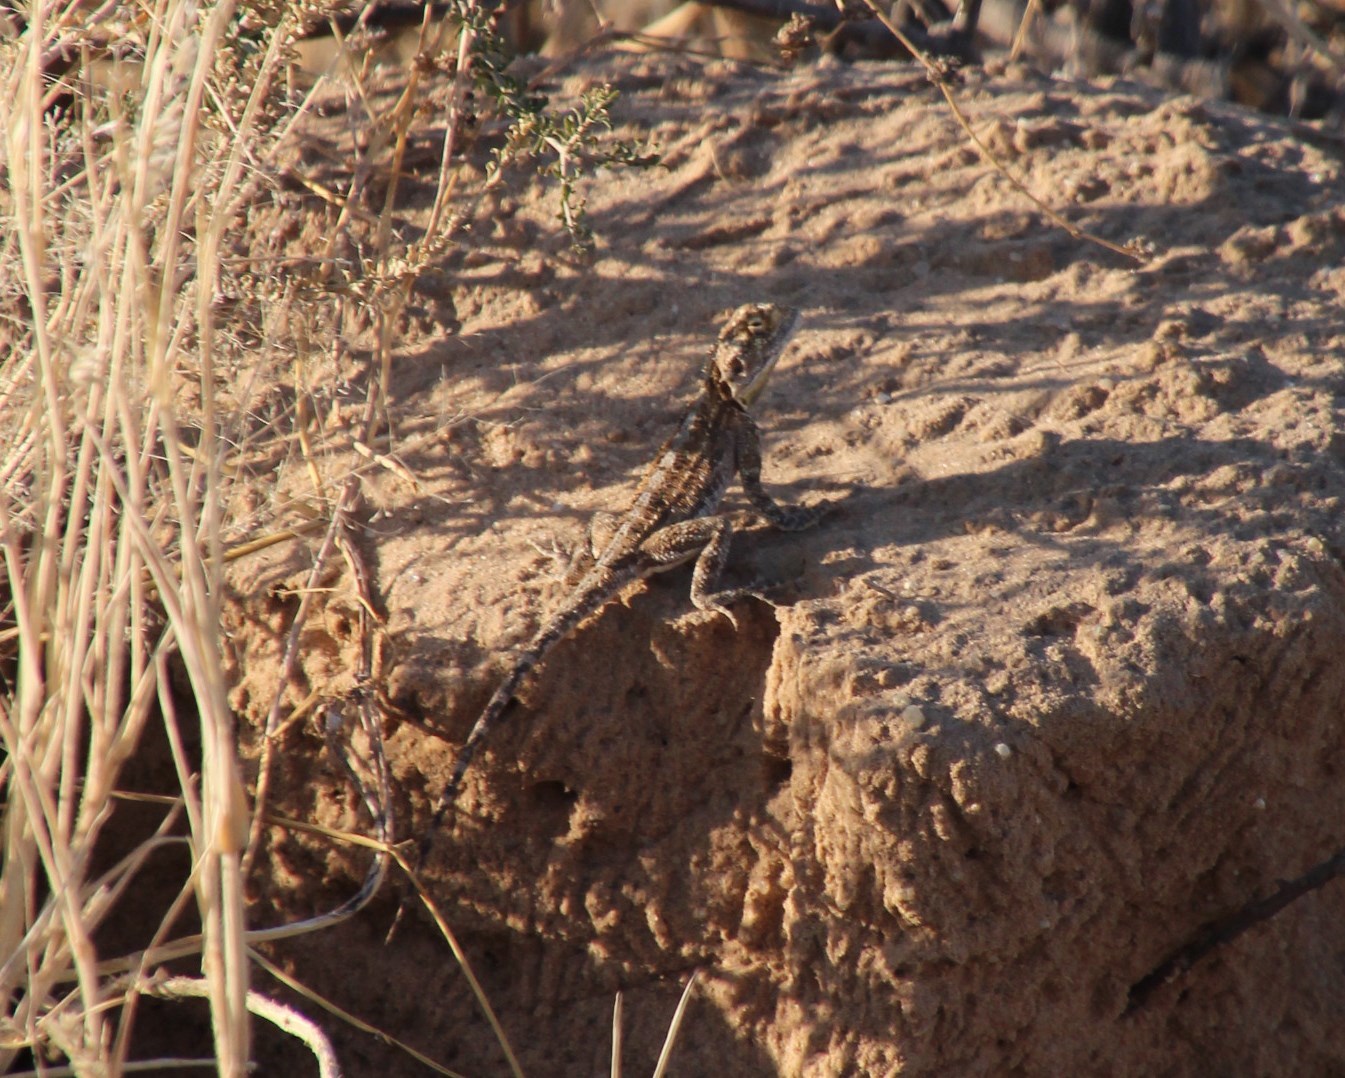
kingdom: Animalia
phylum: Chordata
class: Squamata
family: Agamidae
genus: Agama
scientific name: Agama aculeata
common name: Common ground agama
